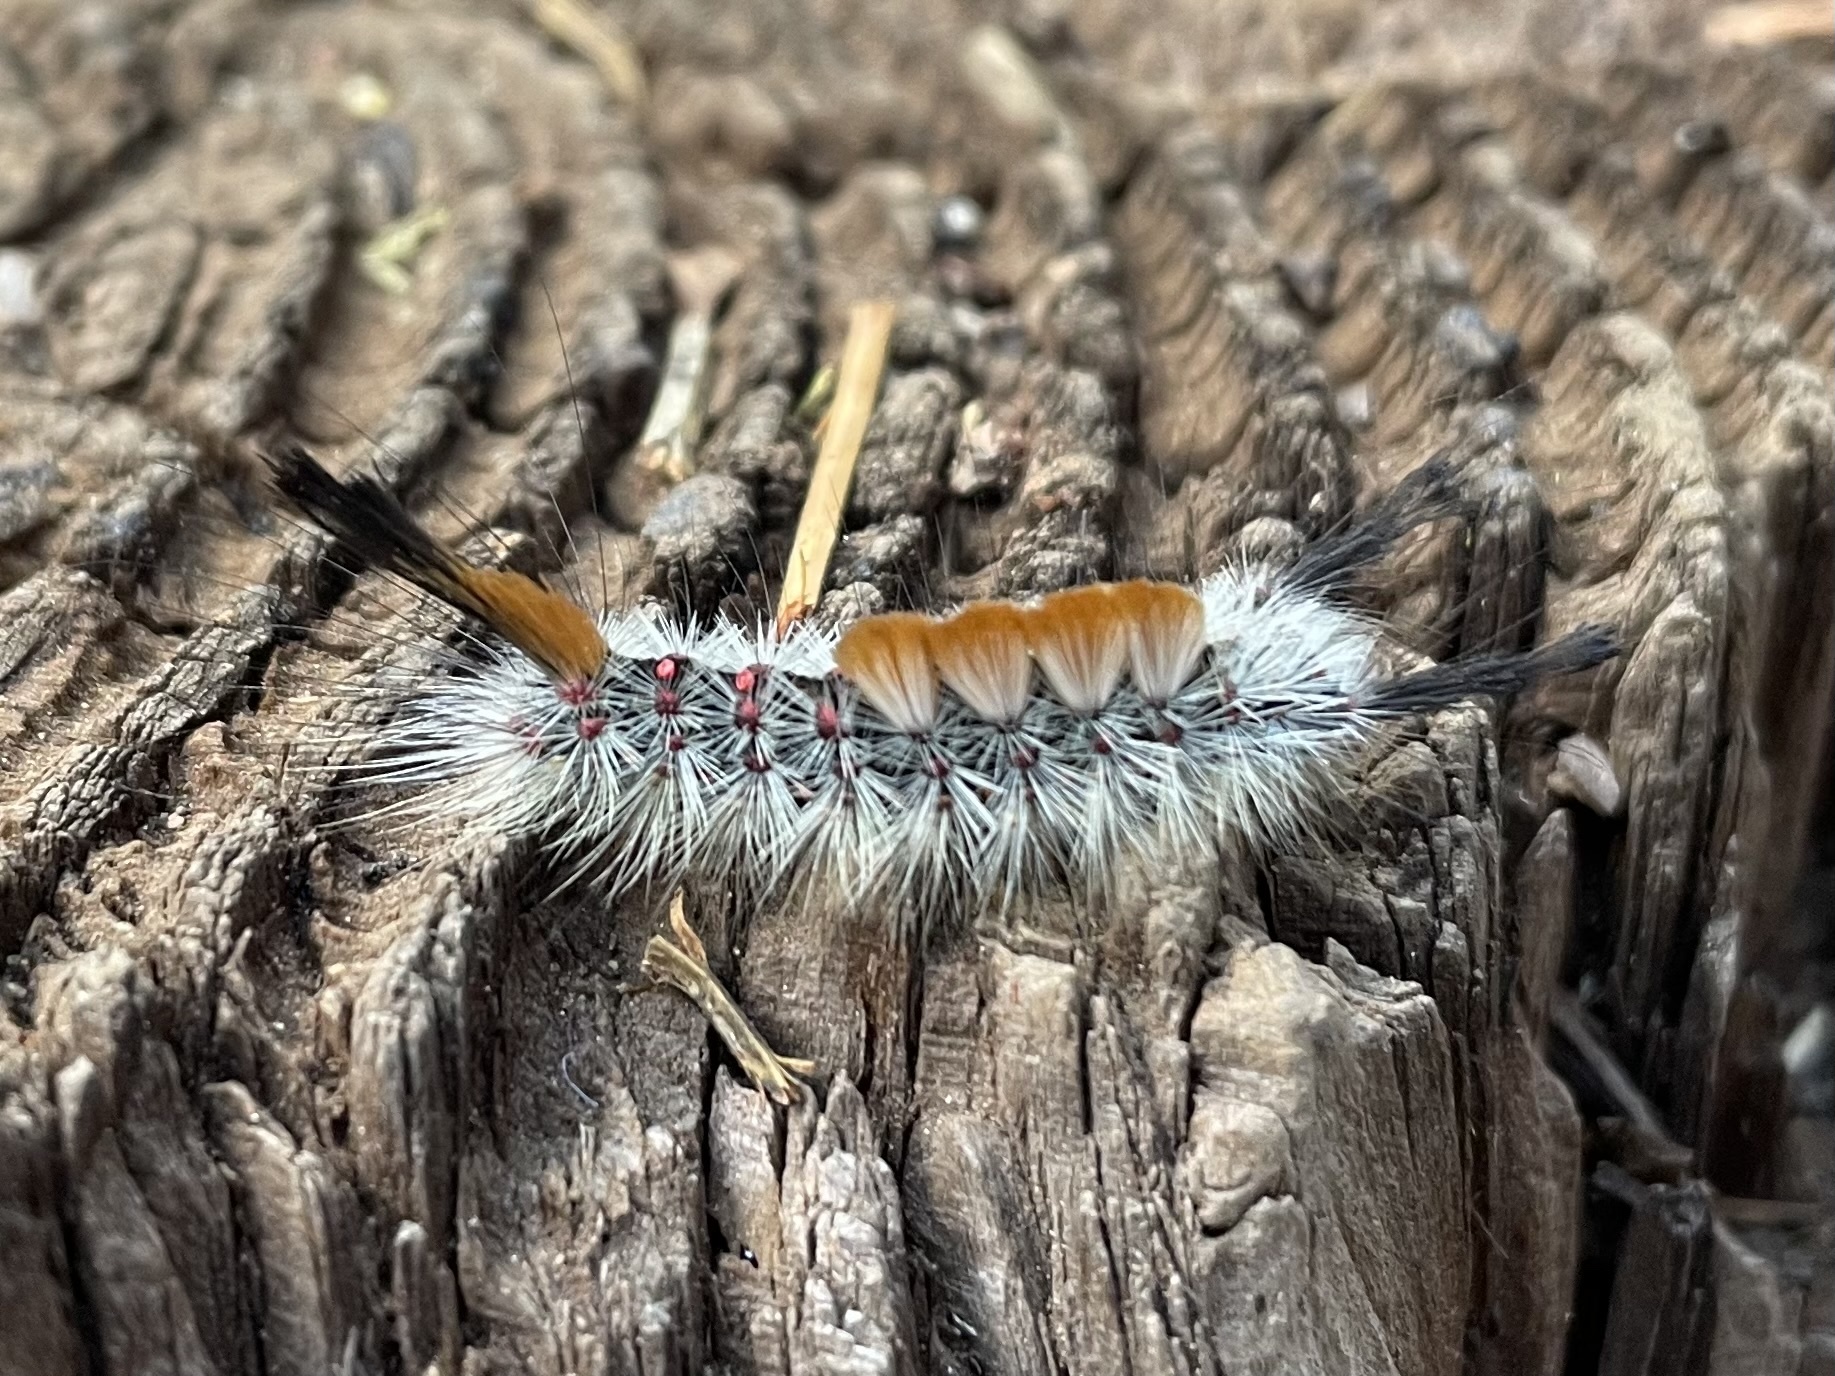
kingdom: Animalia
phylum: Arthropoda
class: Insecta
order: Lepidoptera
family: Erebidae
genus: Orgyia
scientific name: Orgyia pseudotsugata
